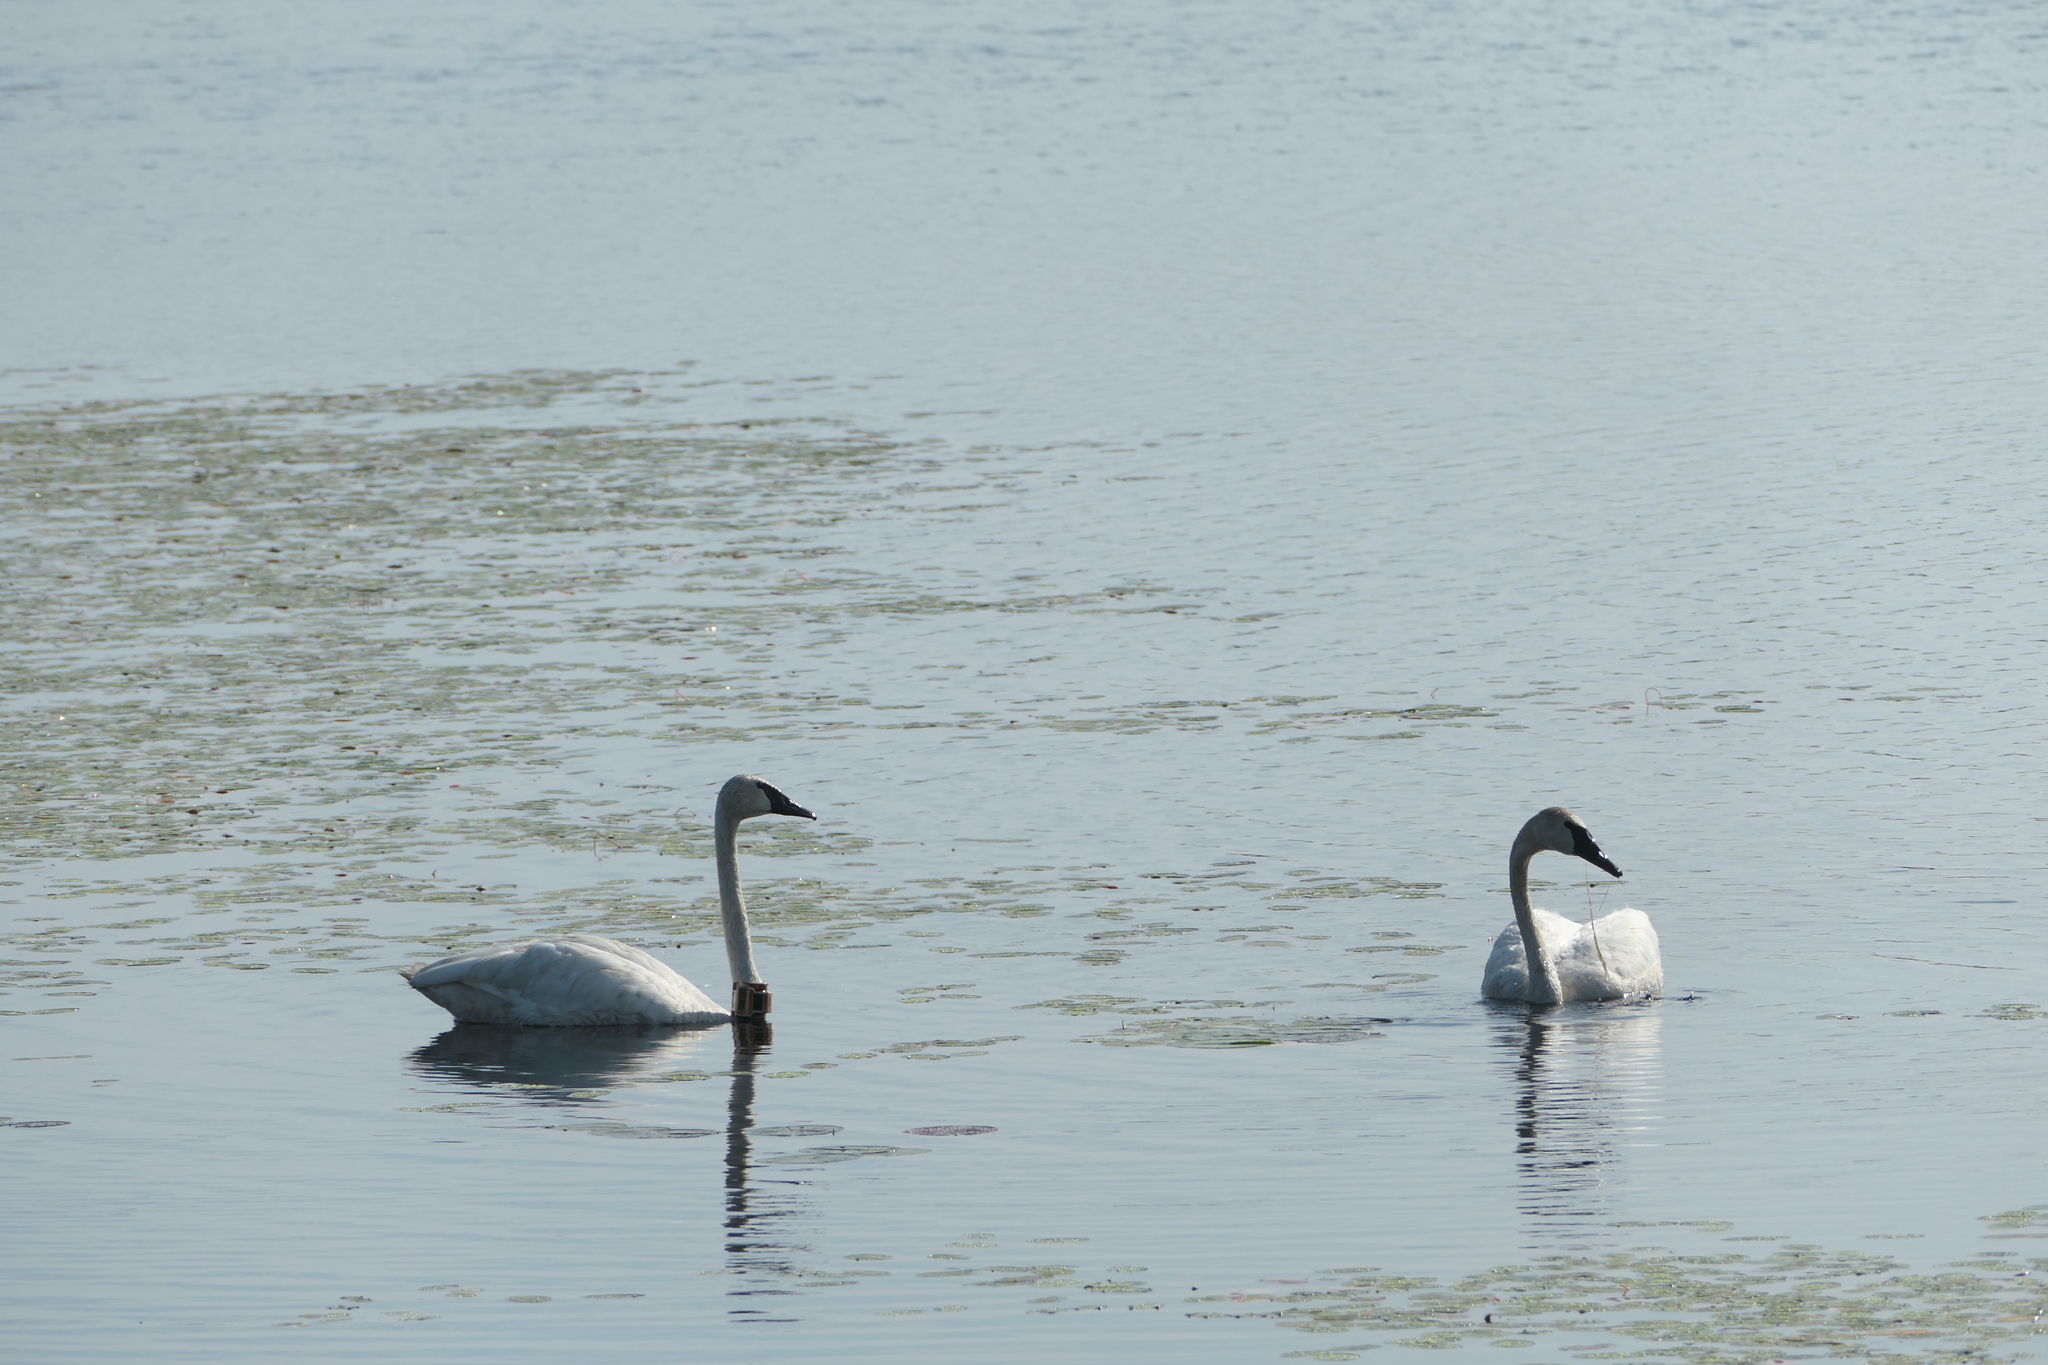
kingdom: Animalia
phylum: Chordata
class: Aves
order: Anseriformes
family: Anatidae
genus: Cygnus
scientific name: Cygnus buccinator
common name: Trumpeter swan
